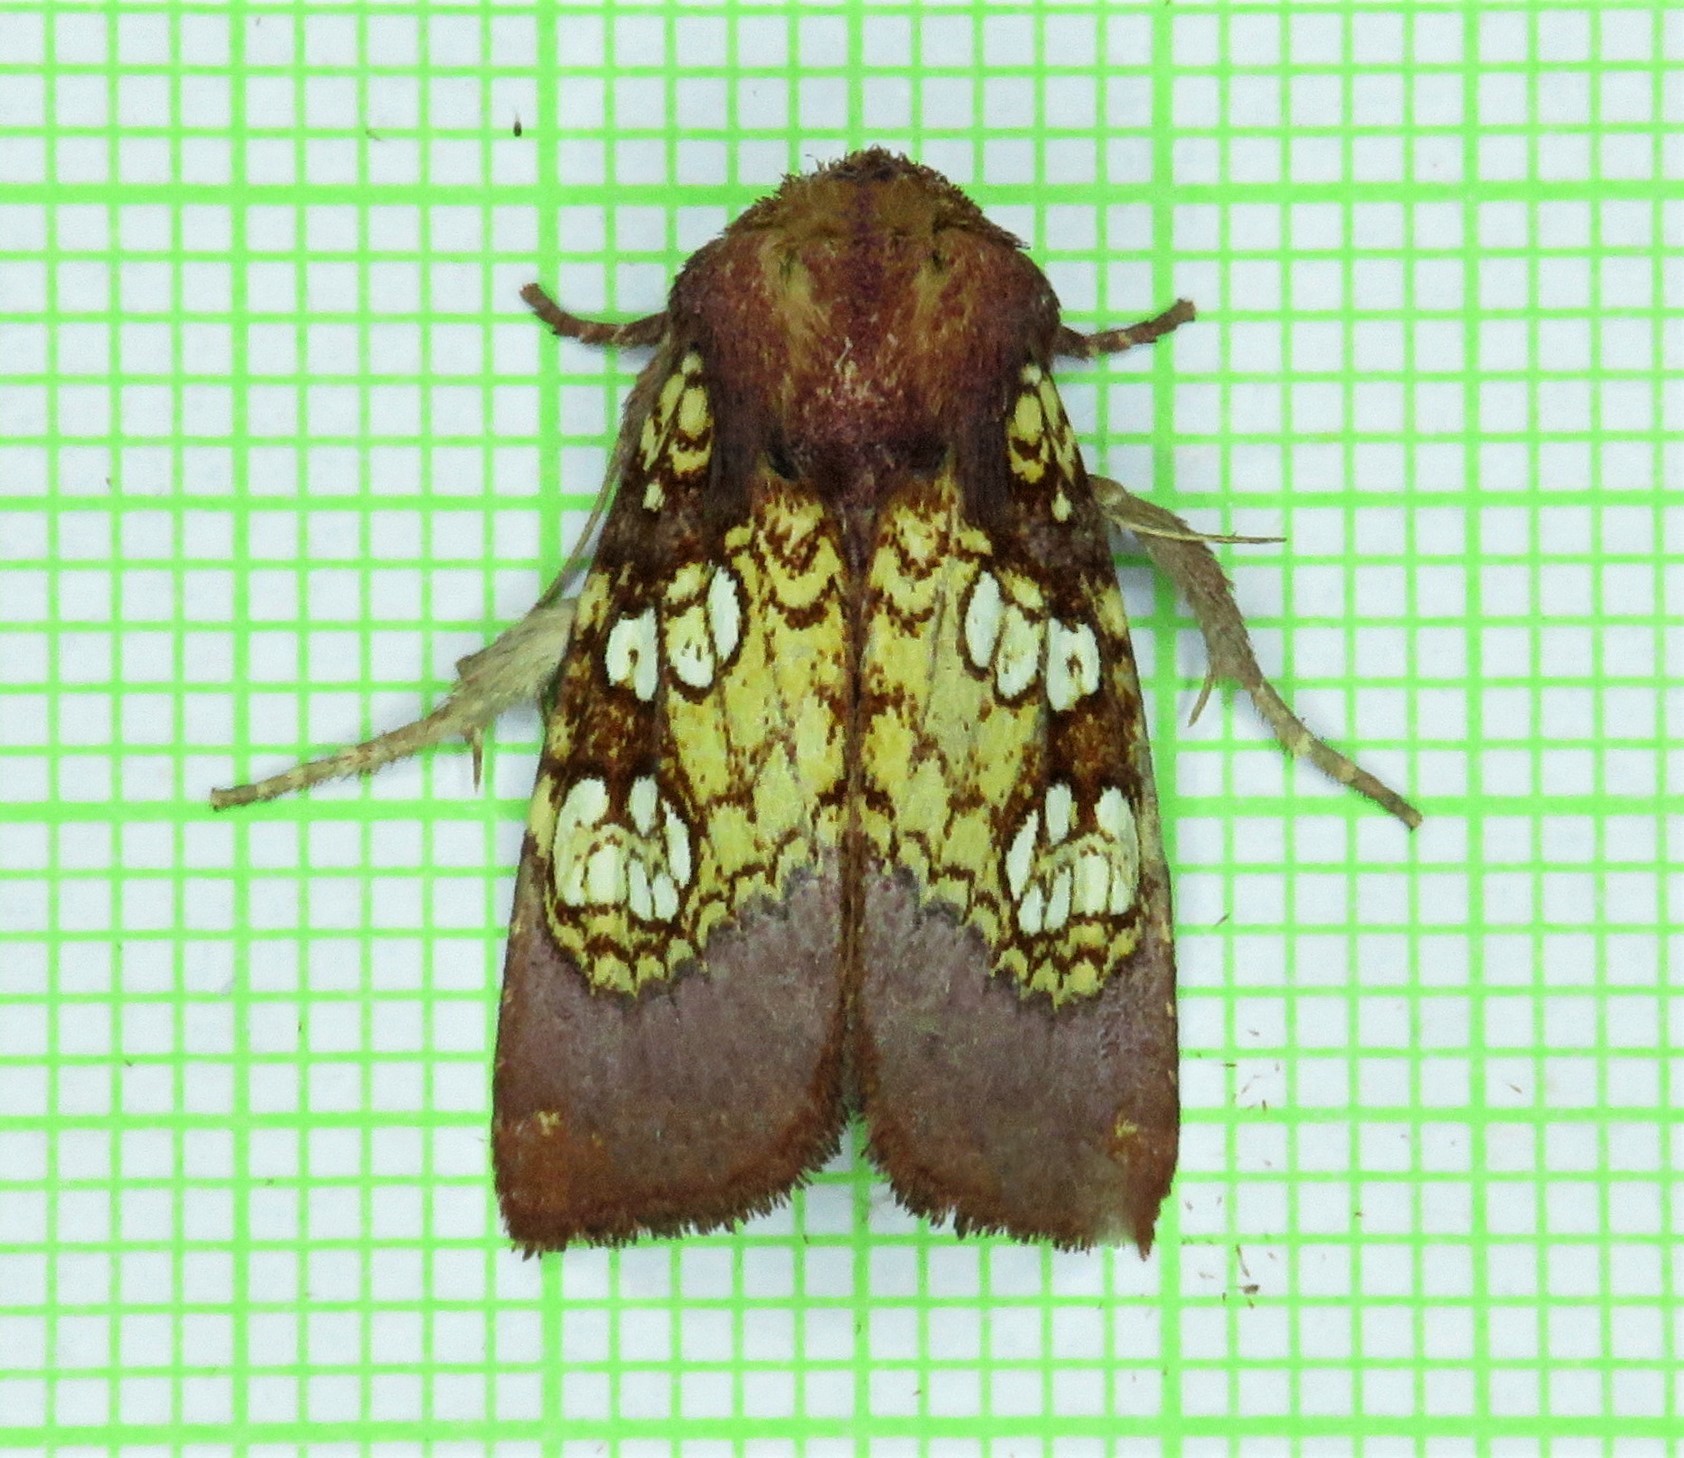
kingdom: Animalia
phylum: Arthropoda
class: Insecta
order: Lepidoptera
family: Noctuidae
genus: Papaipema
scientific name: Papaipema appassionata
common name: Pitcher plant borer moth
